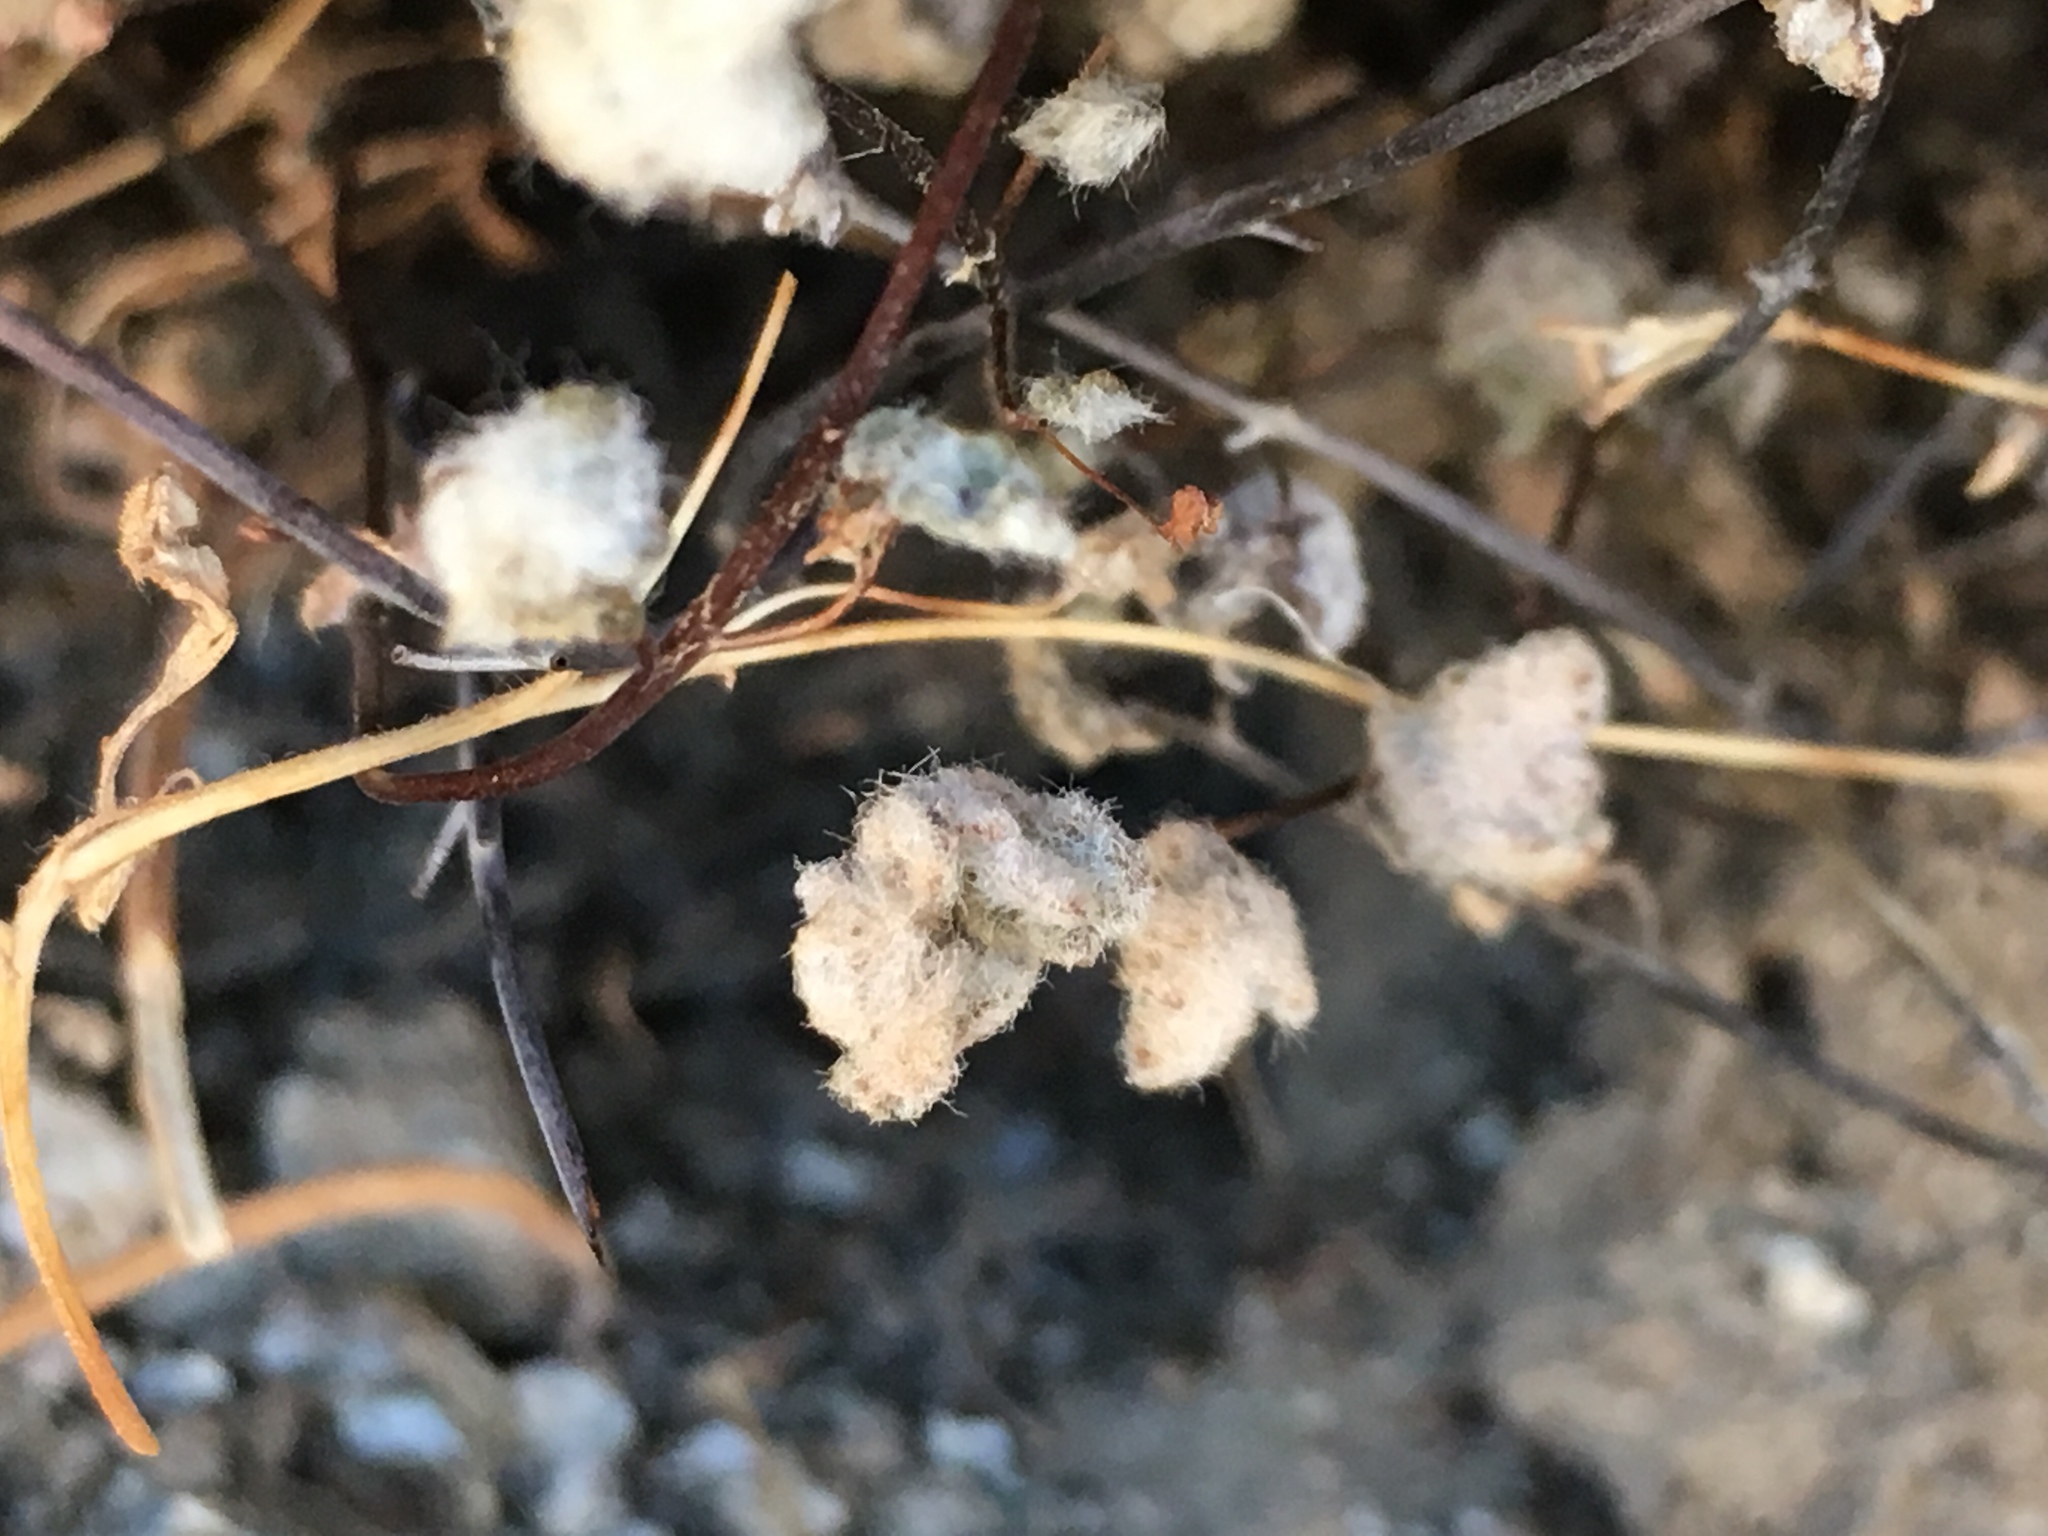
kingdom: Plantae
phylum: Tracheophyta
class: Polypodiopsida
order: Polypodiales
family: Pteridaceae
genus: Myriopteris
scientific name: Myriopteris parryi
